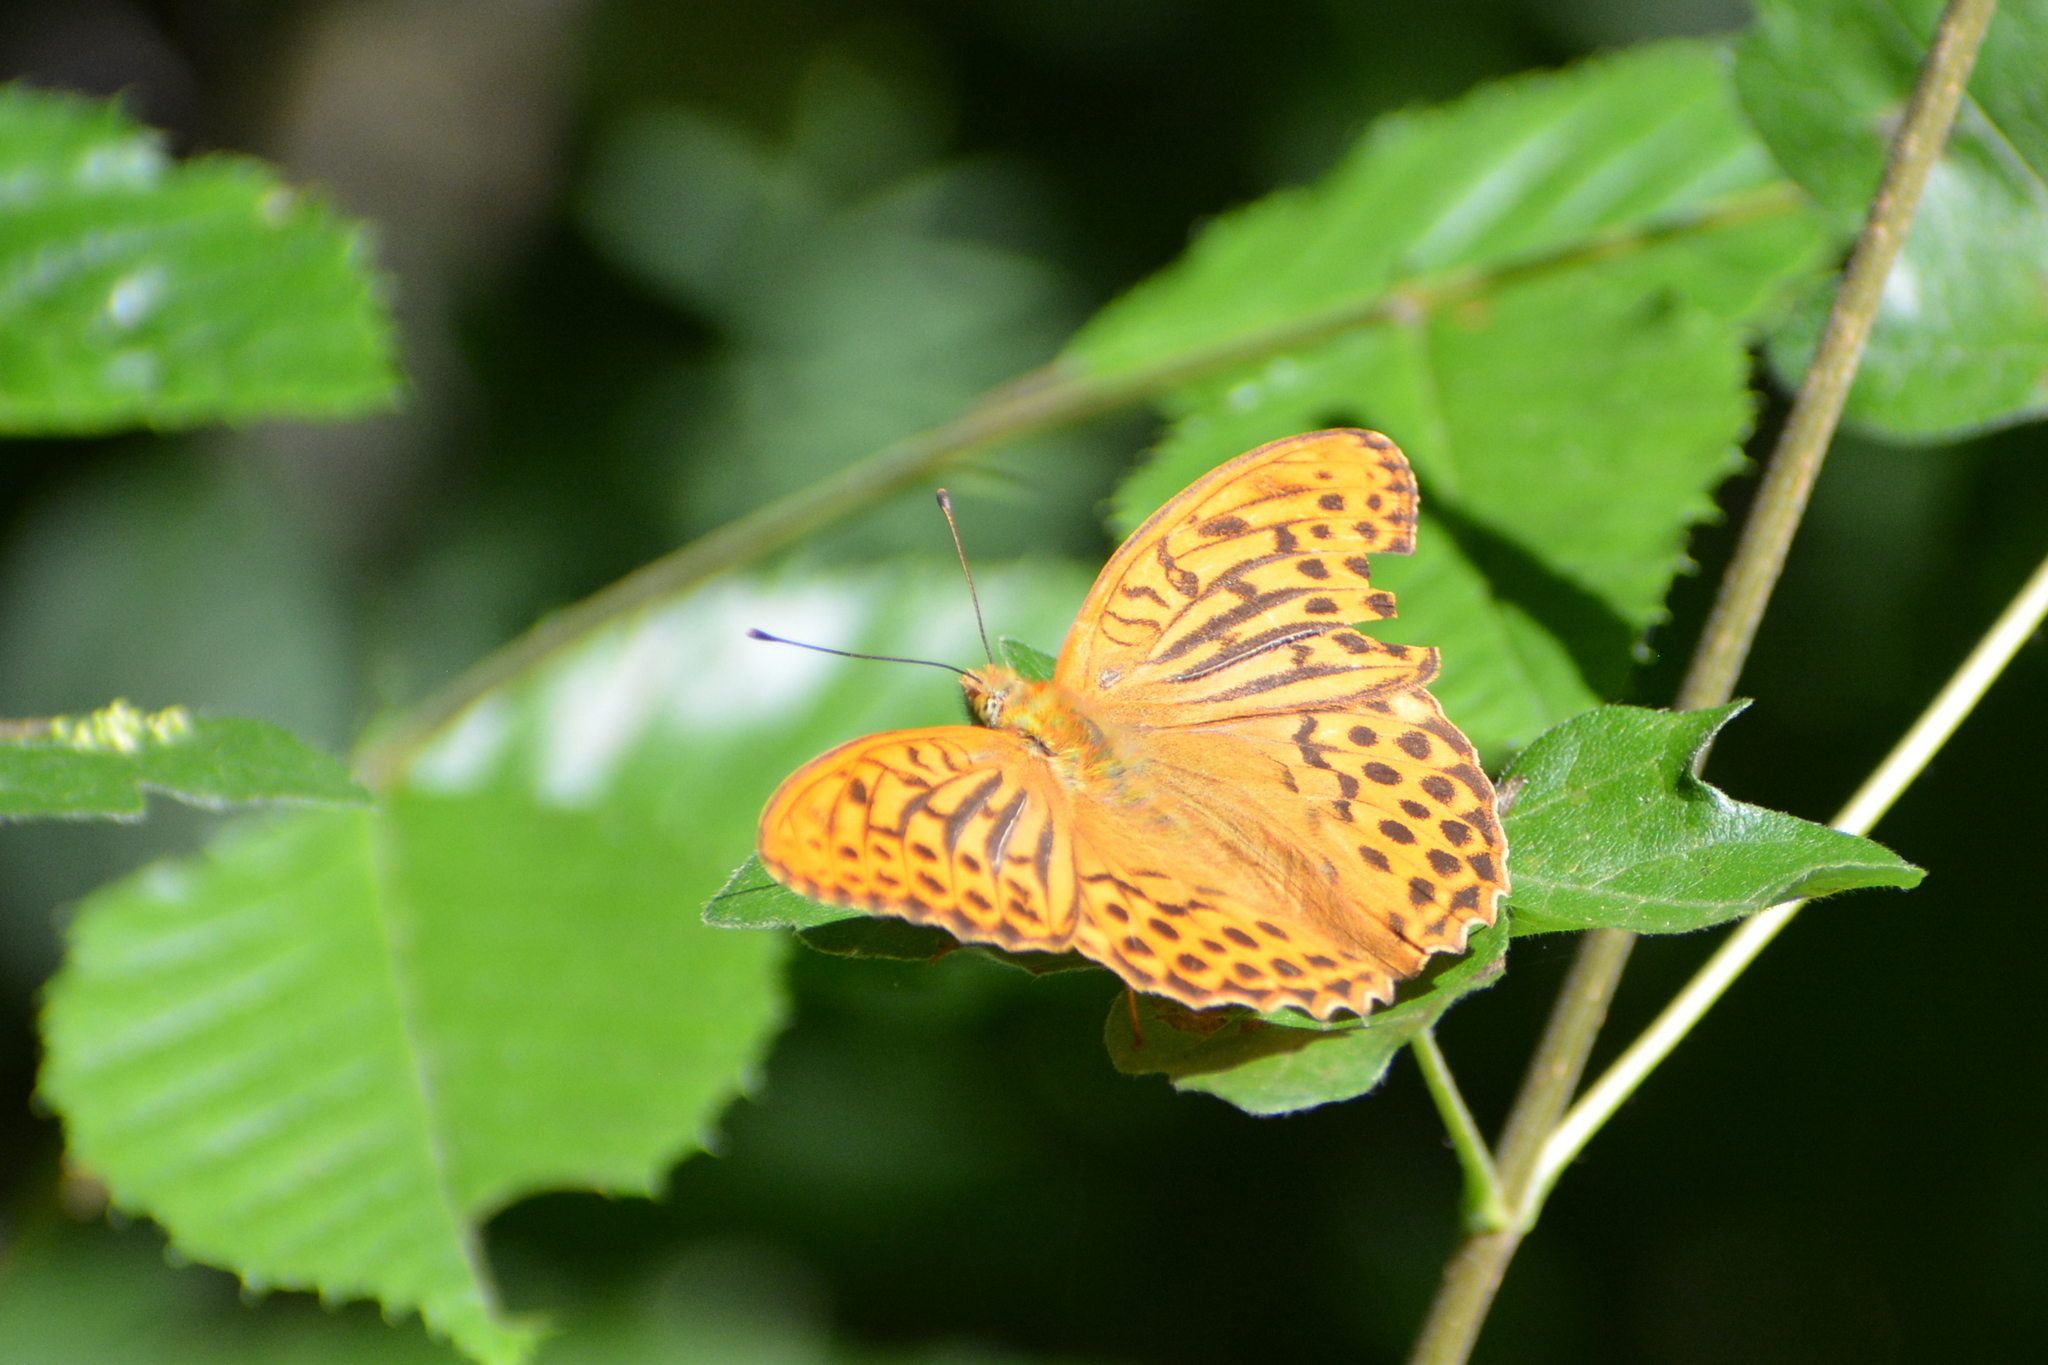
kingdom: Animalia
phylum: Arthropoda
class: Insecta
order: Lepidoptera
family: Nymphalidae
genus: Argynnis
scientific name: Argynnis paphia
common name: Silver-washed fritillary
